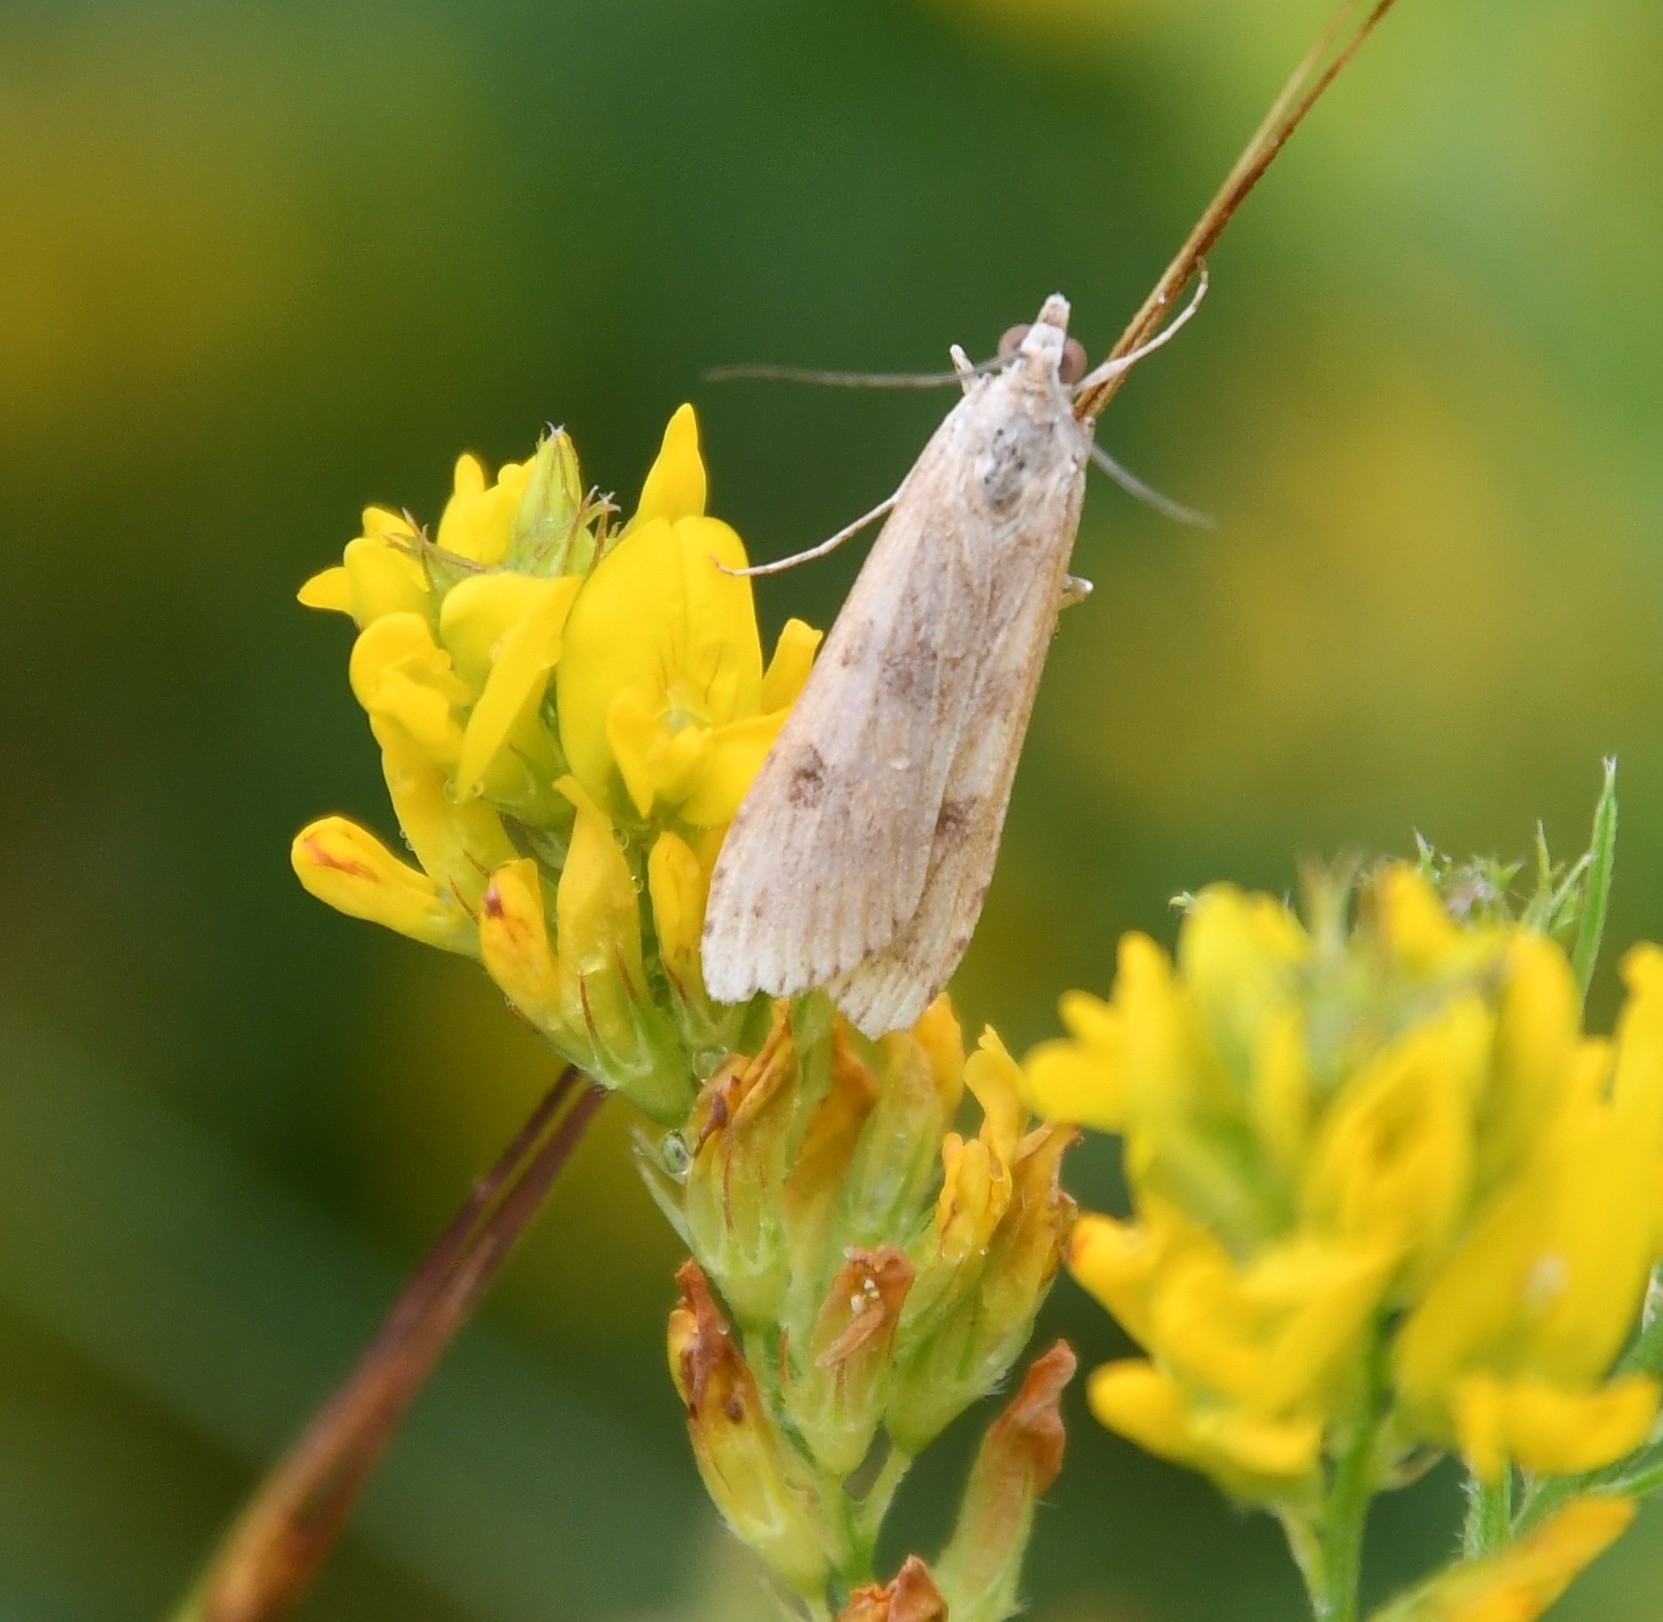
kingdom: Animalia
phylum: Arthropoda
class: Insecta
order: Lepidoptera
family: Crambidae
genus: Nomophila
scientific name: Nomophila noctuella
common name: Rush veneer
